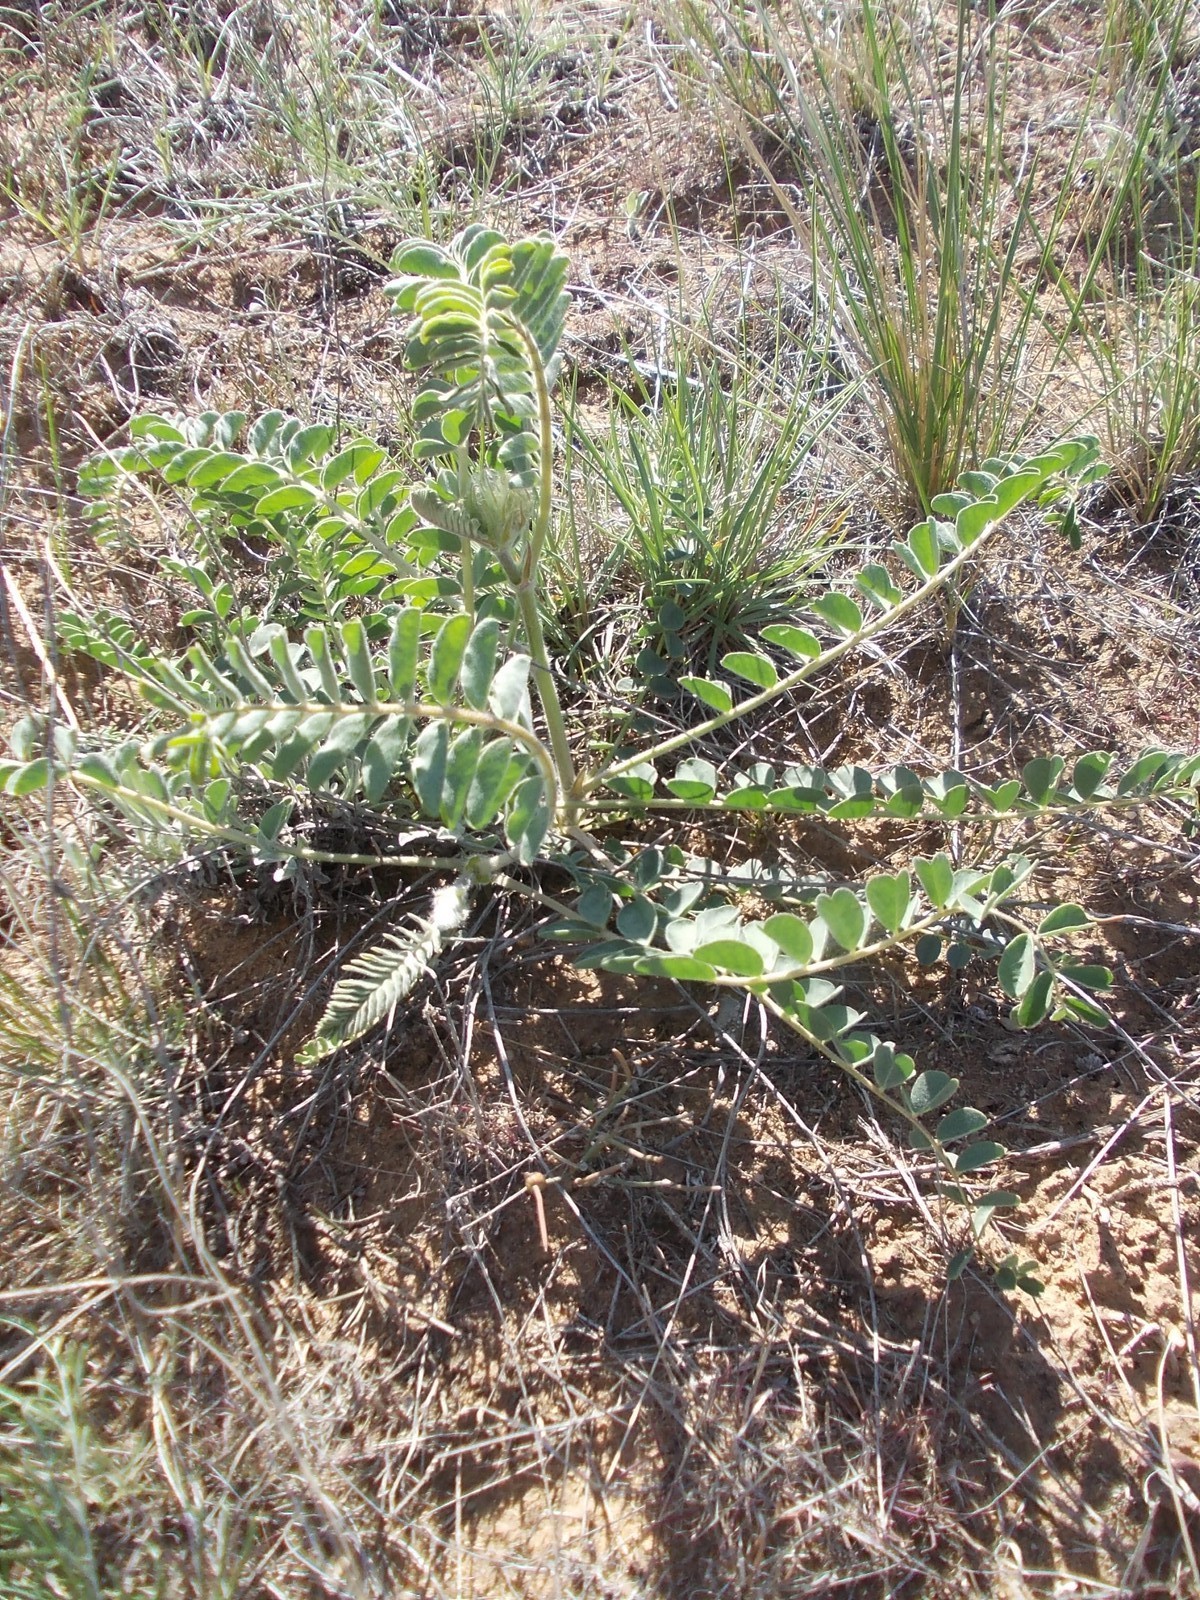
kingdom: Plantae
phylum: Tracheophyta
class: Magnoliopsida
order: Fabales
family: Fabaceae
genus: Astragalus
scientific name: Astragalus vulpinus
